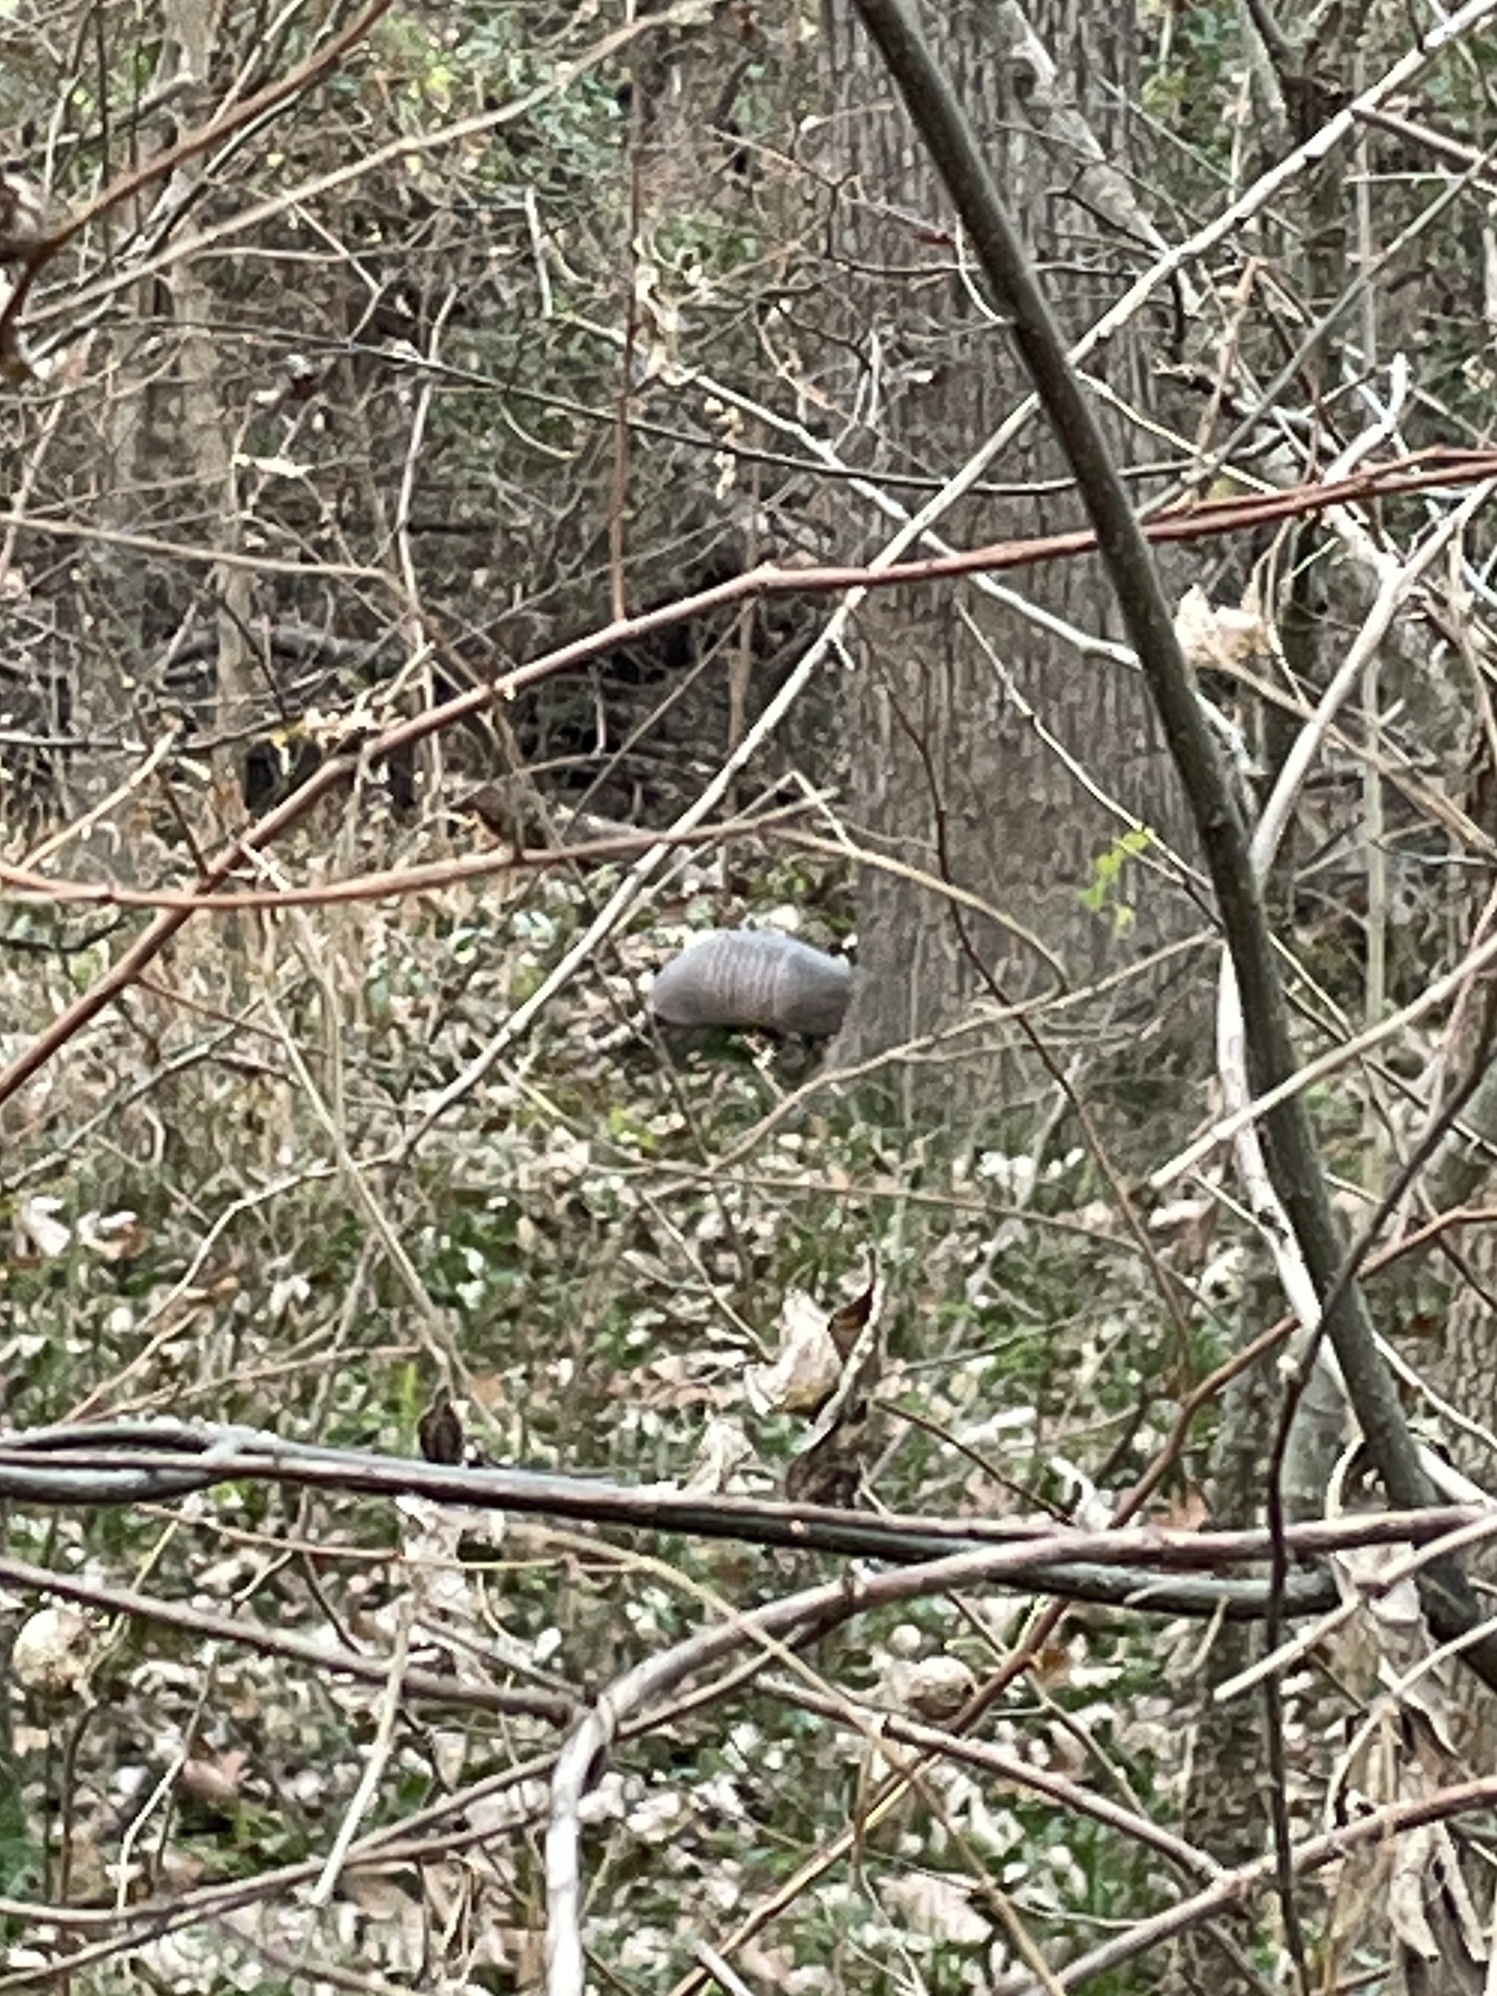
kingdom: Animalia
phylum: Chordata
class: Mammalia
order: Cingulata
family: Dasypodidae
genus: Dasypus
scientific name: Dasypus novemcinctus
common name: Nine-banded armadillo
